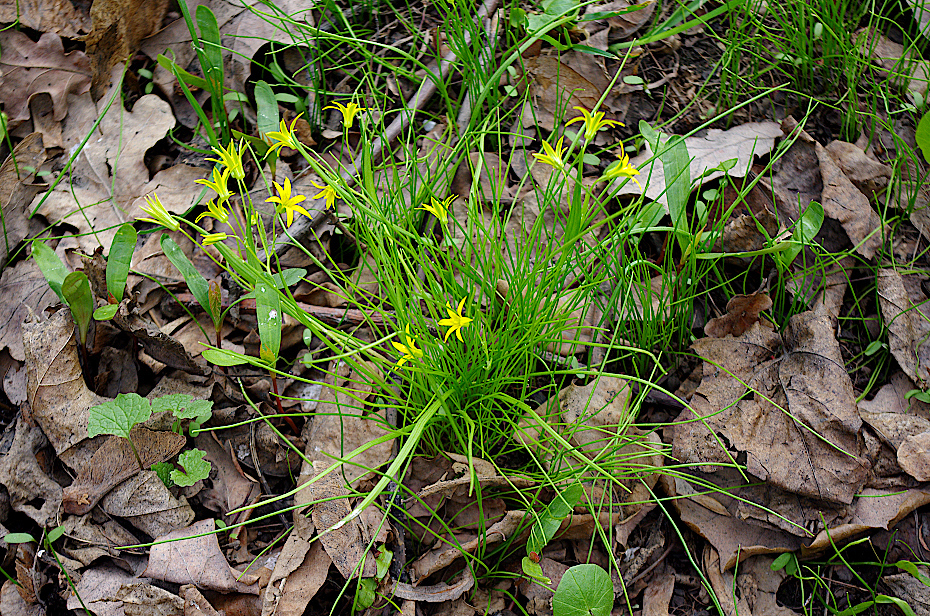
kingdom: Plantae
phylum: Tracheophyta
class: Liliopsida
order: Liliales
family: Liliaceae
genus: Gagea
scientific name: Gagea minima
